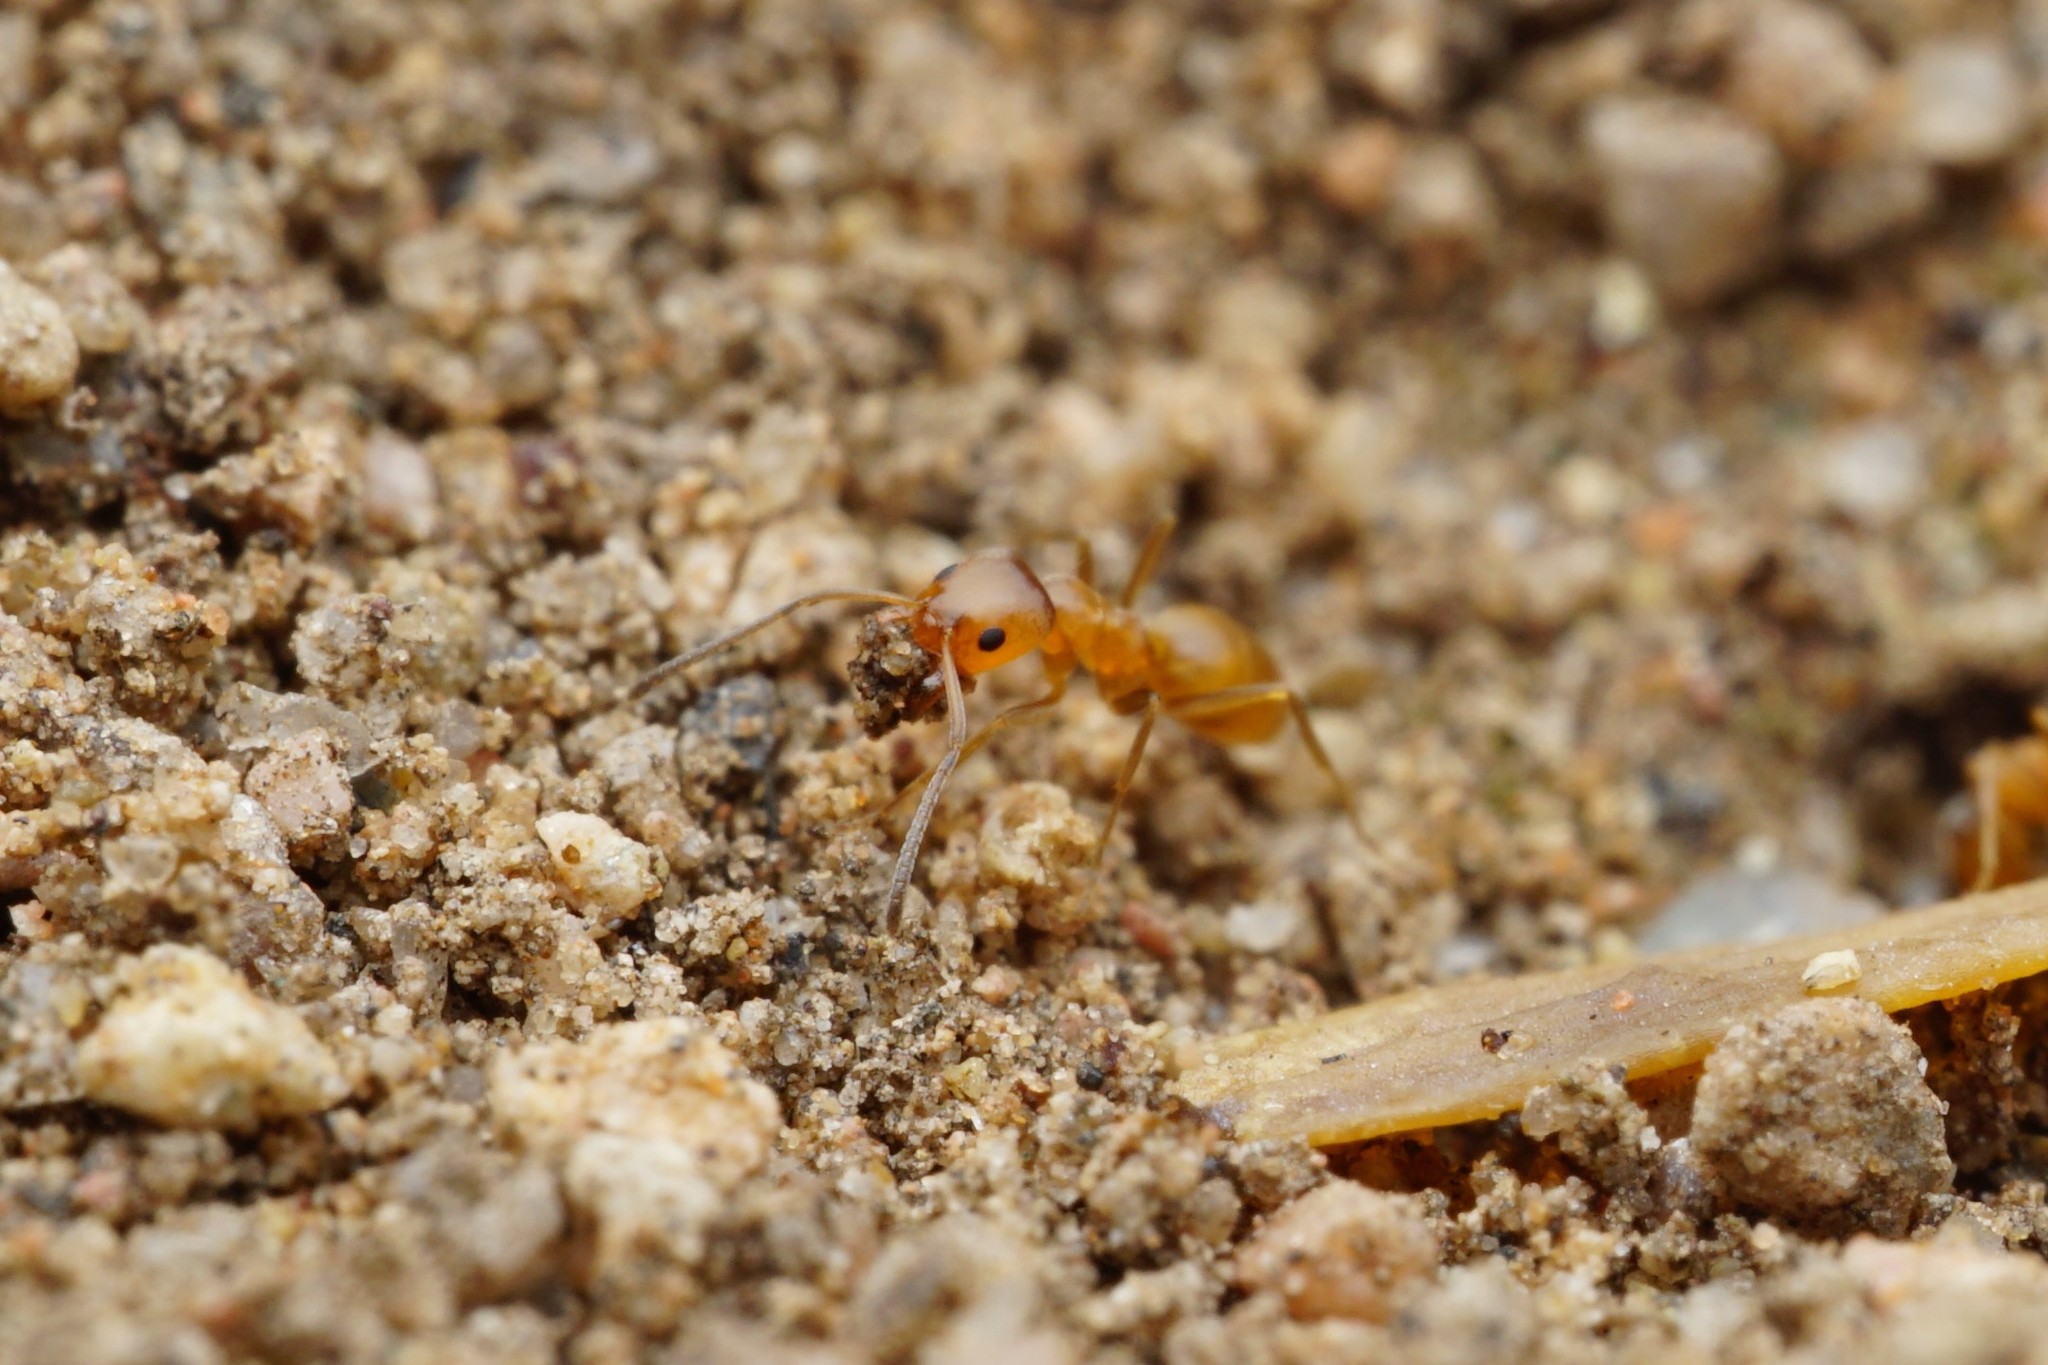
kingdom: Animalia
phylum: Arthropoda
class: Insecta
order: Hymenoptera
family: Formicidae
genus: Forelius
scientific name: Forelius pruinosus
